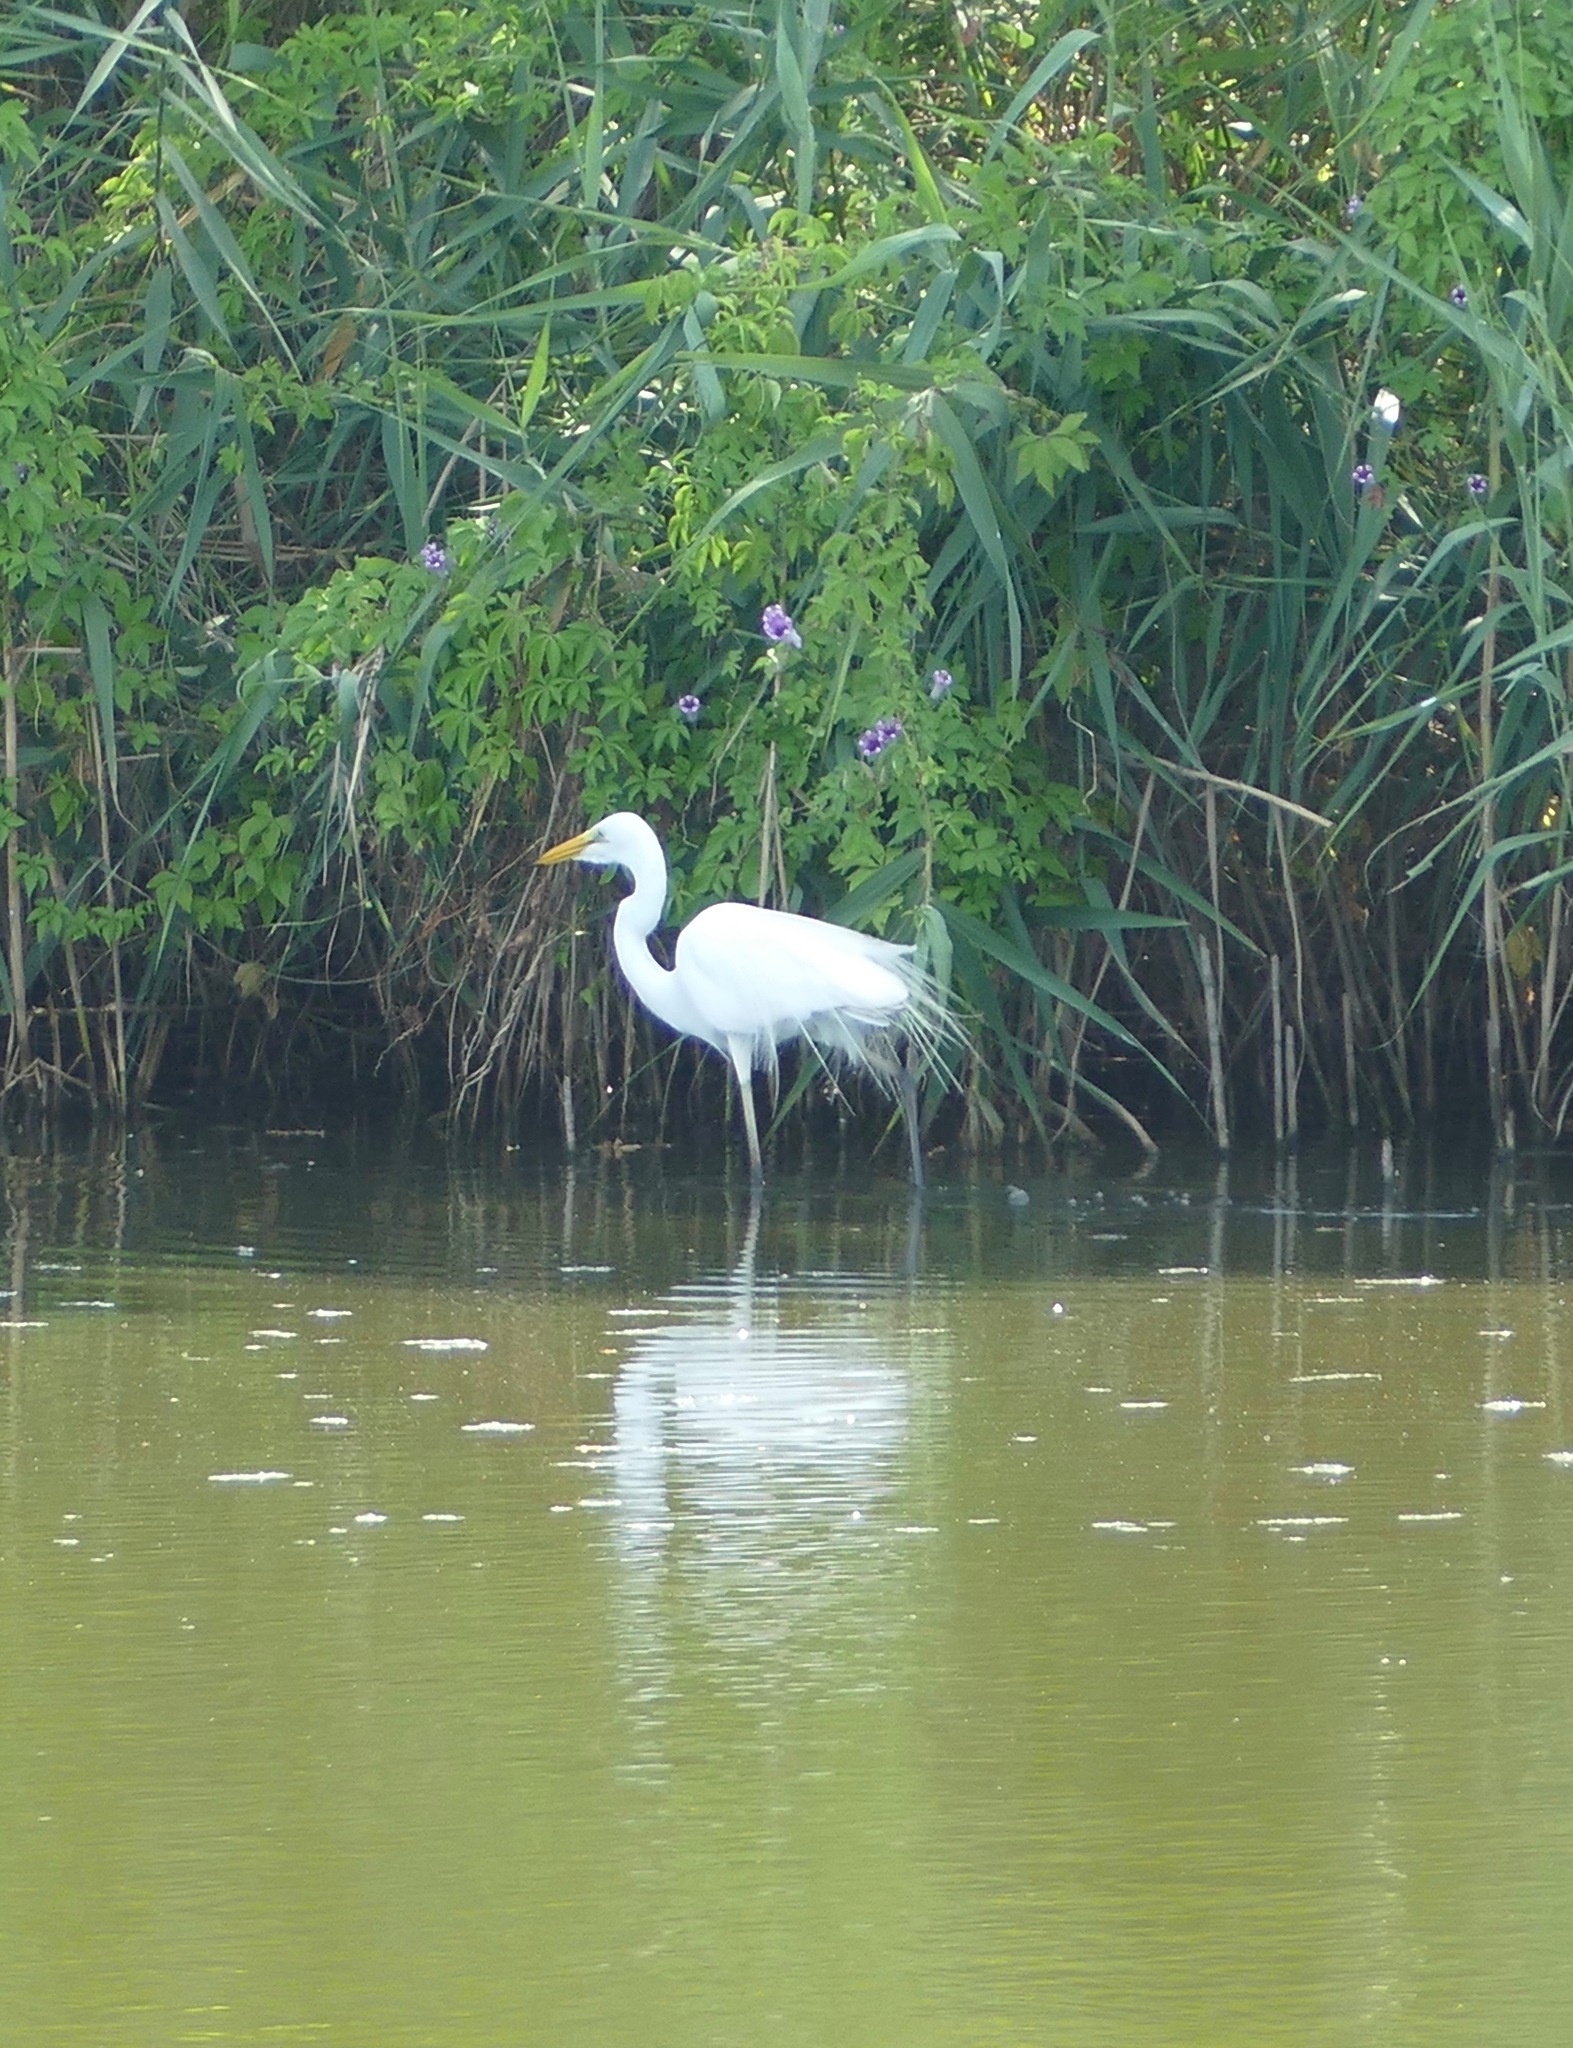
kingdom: Animalia
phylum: Chordata
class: Aves
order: Pelecaniformes
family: Ardeidae
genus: Ardea
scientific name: Ardea alba
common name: Great egret
